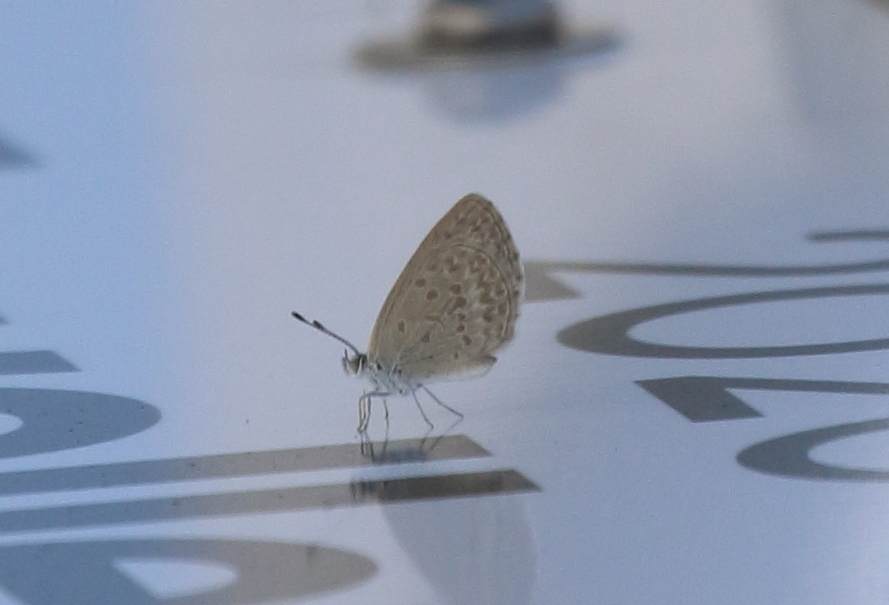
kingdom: Animalia
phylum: Arthropoda
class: Insecta
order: Lepidoptera
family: Lycaenidae
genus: Zizina
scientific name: Zizina labradus
